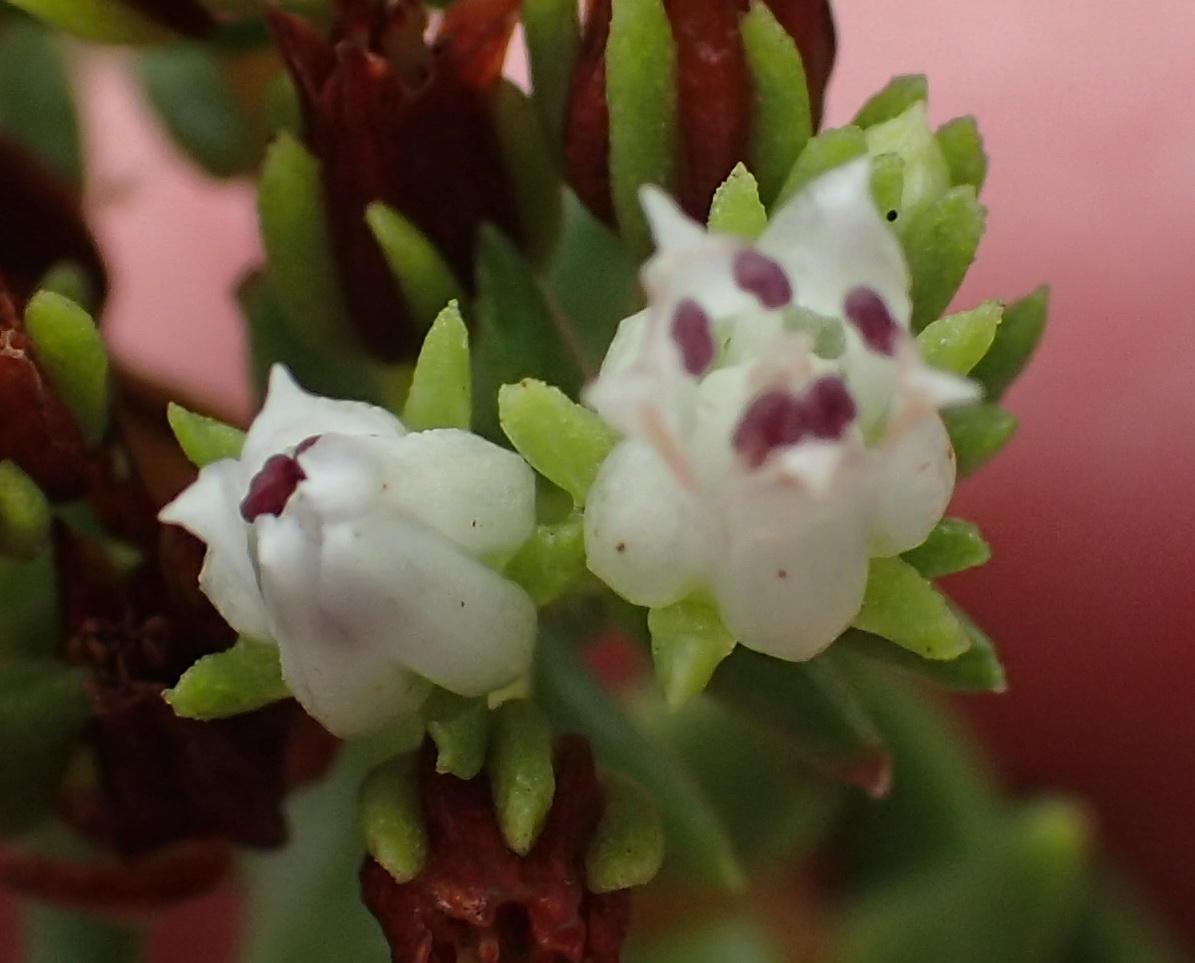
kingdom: Plantae
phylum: Tracheophyta
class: Magnoliopsida
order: Saxifragales
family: Crassulaceae
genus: Crassula
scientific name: Crassula ericoides
